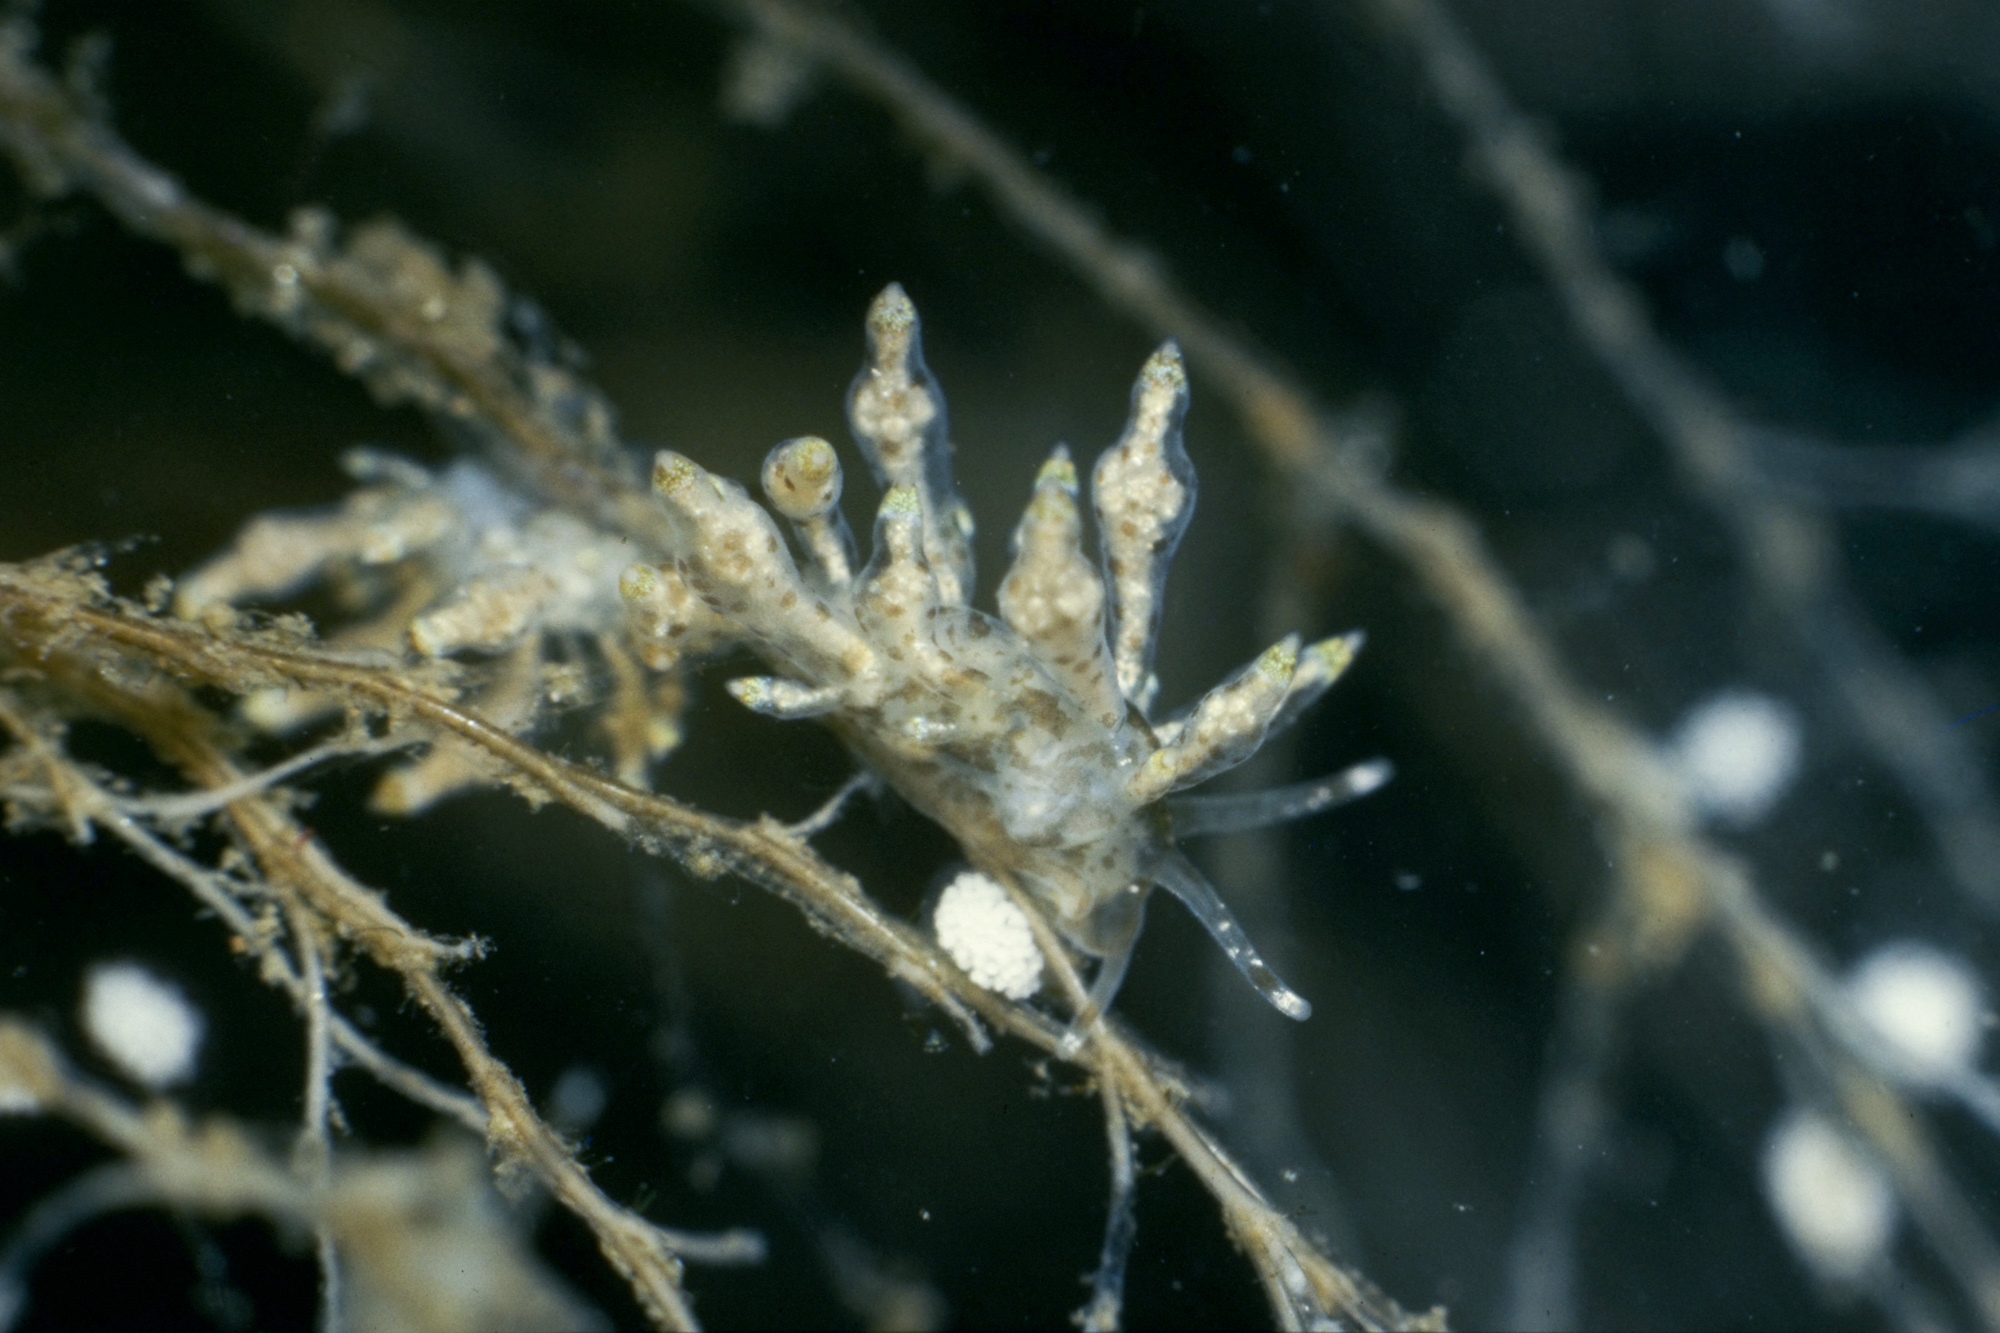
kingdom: Animalia
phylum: Mollusca
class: Gastropoda
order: Nudibranchia
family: Eubranchidae
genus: Eubranchus
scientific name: Eubranchus scintillans
